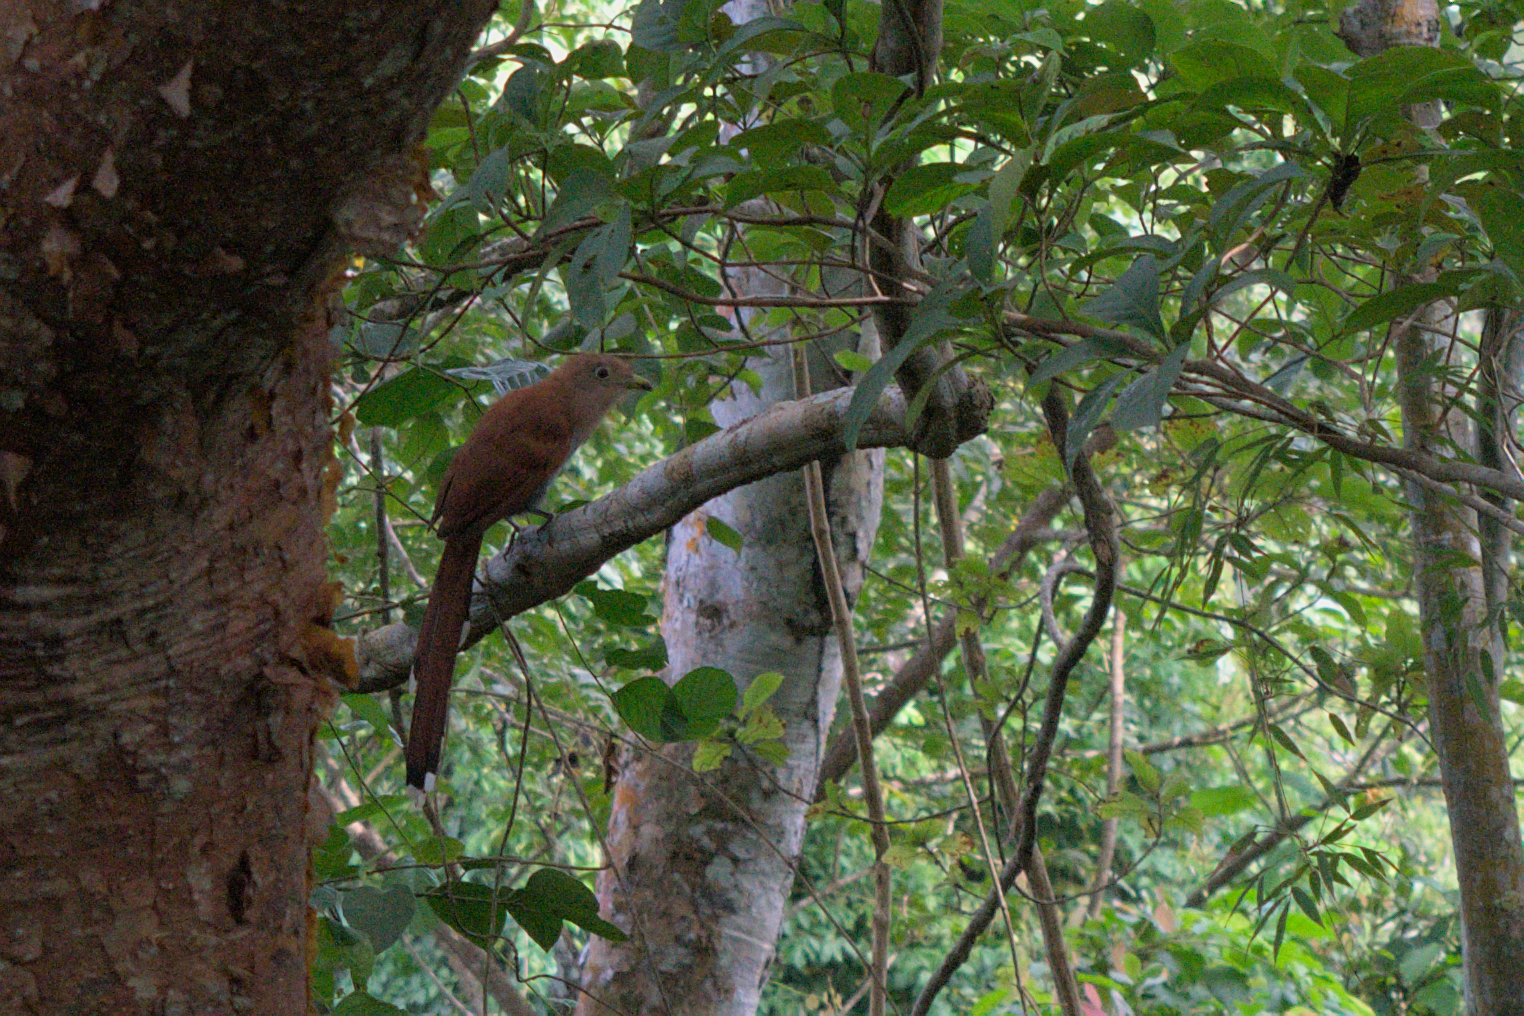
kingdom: Animalia
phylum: Chordata
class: Aves
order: Cuculiformes
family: Cuculidae
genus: Piaya
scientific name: Piaya cayana
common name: Squirrel cuckoo
